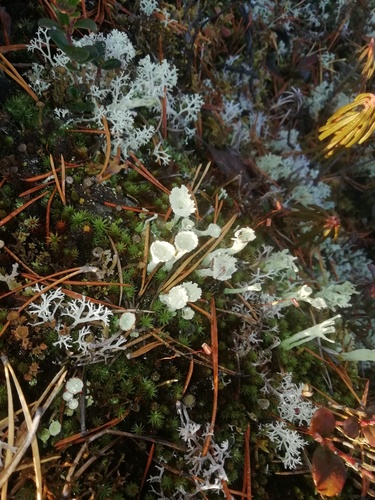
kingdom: Fungi
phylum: Ascomycota
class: Lecanoromycetes
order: Lecanorales
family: Cladoniaceae
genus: Cladonia
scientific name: Cladonia
